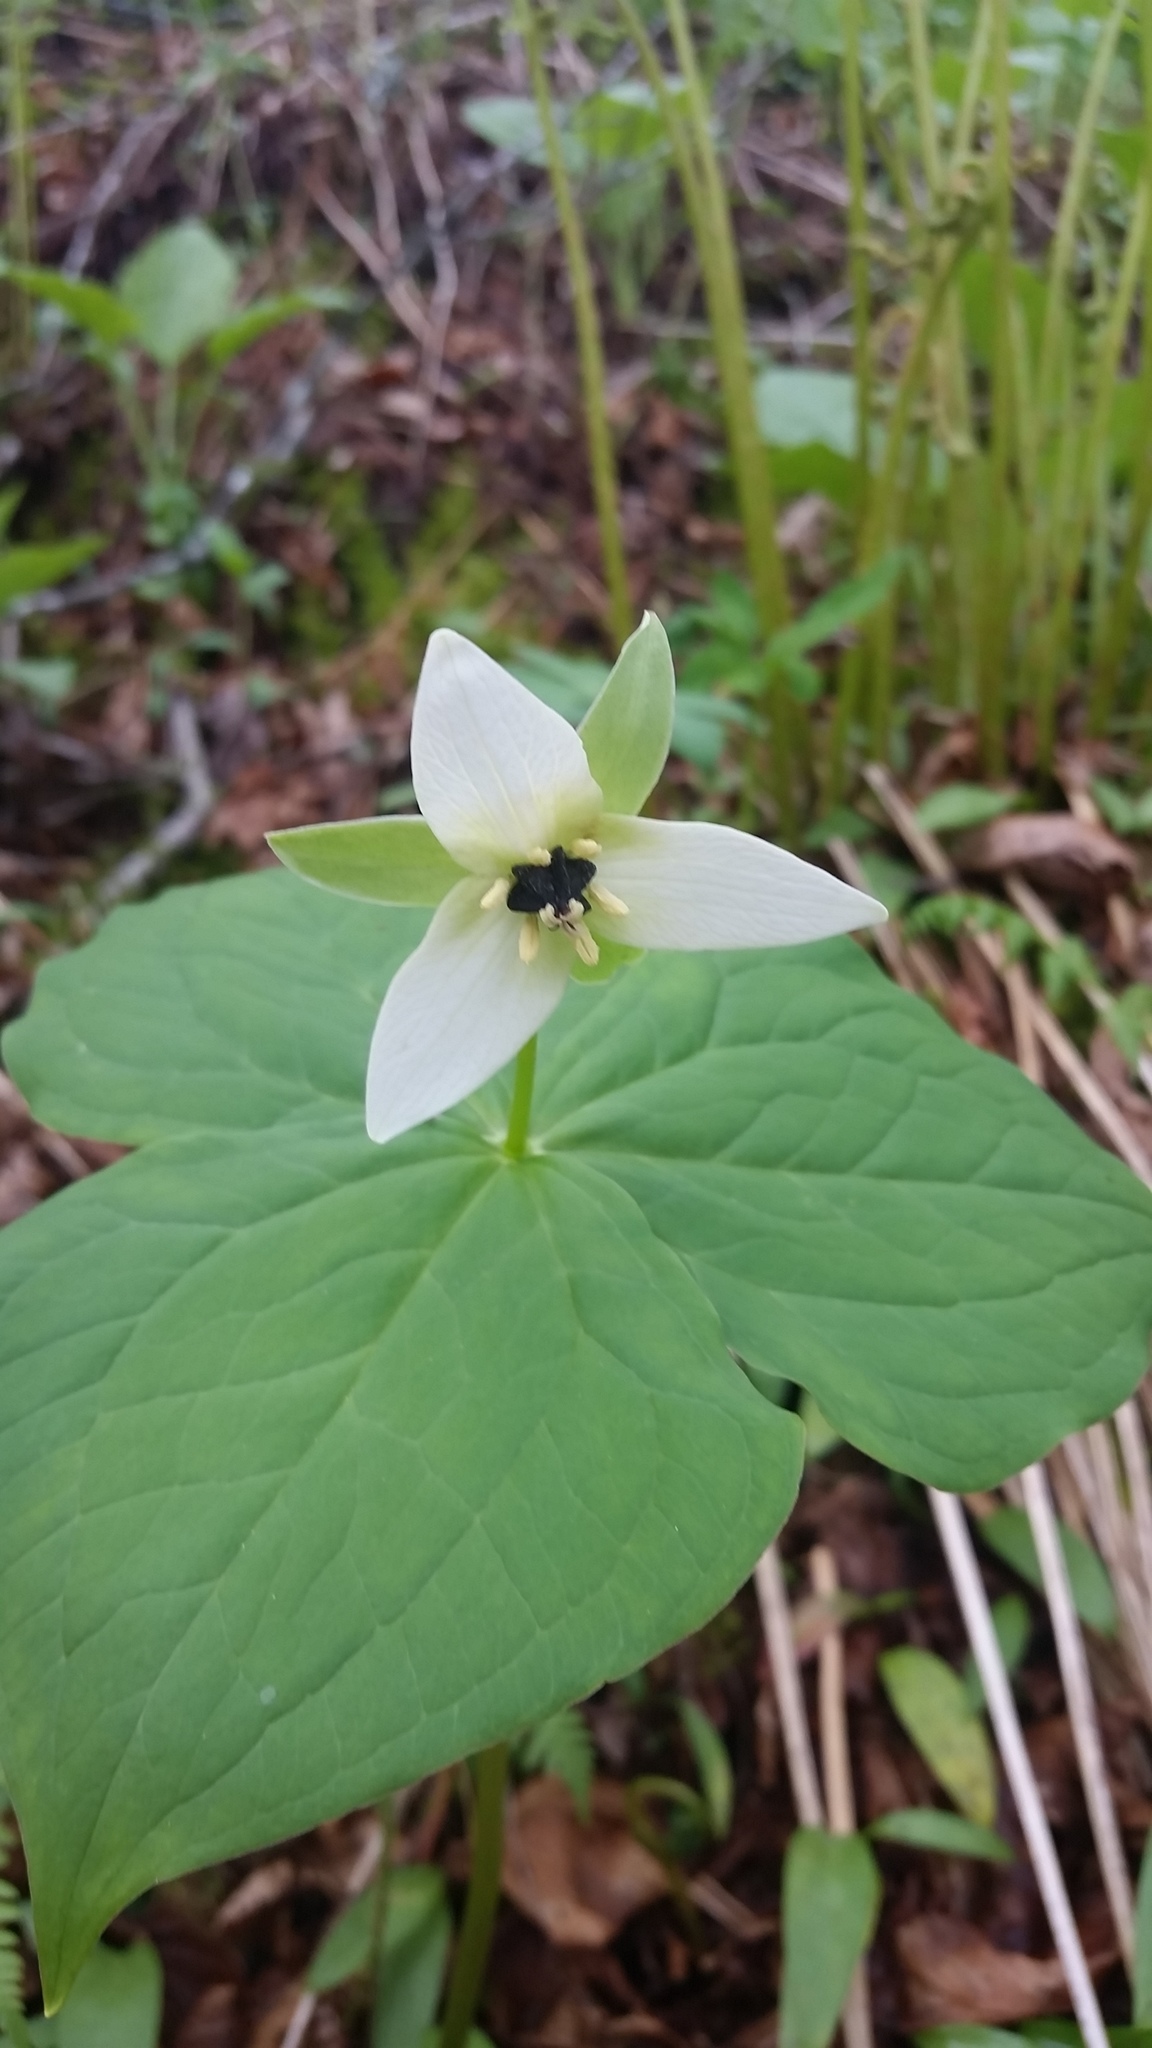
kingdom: Plantae
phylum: Tracheophyta
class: Liliopsida
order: Liliales
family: Melanthiaceae
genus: Trillium
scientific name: Trillium erectum
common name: Purple trillium
